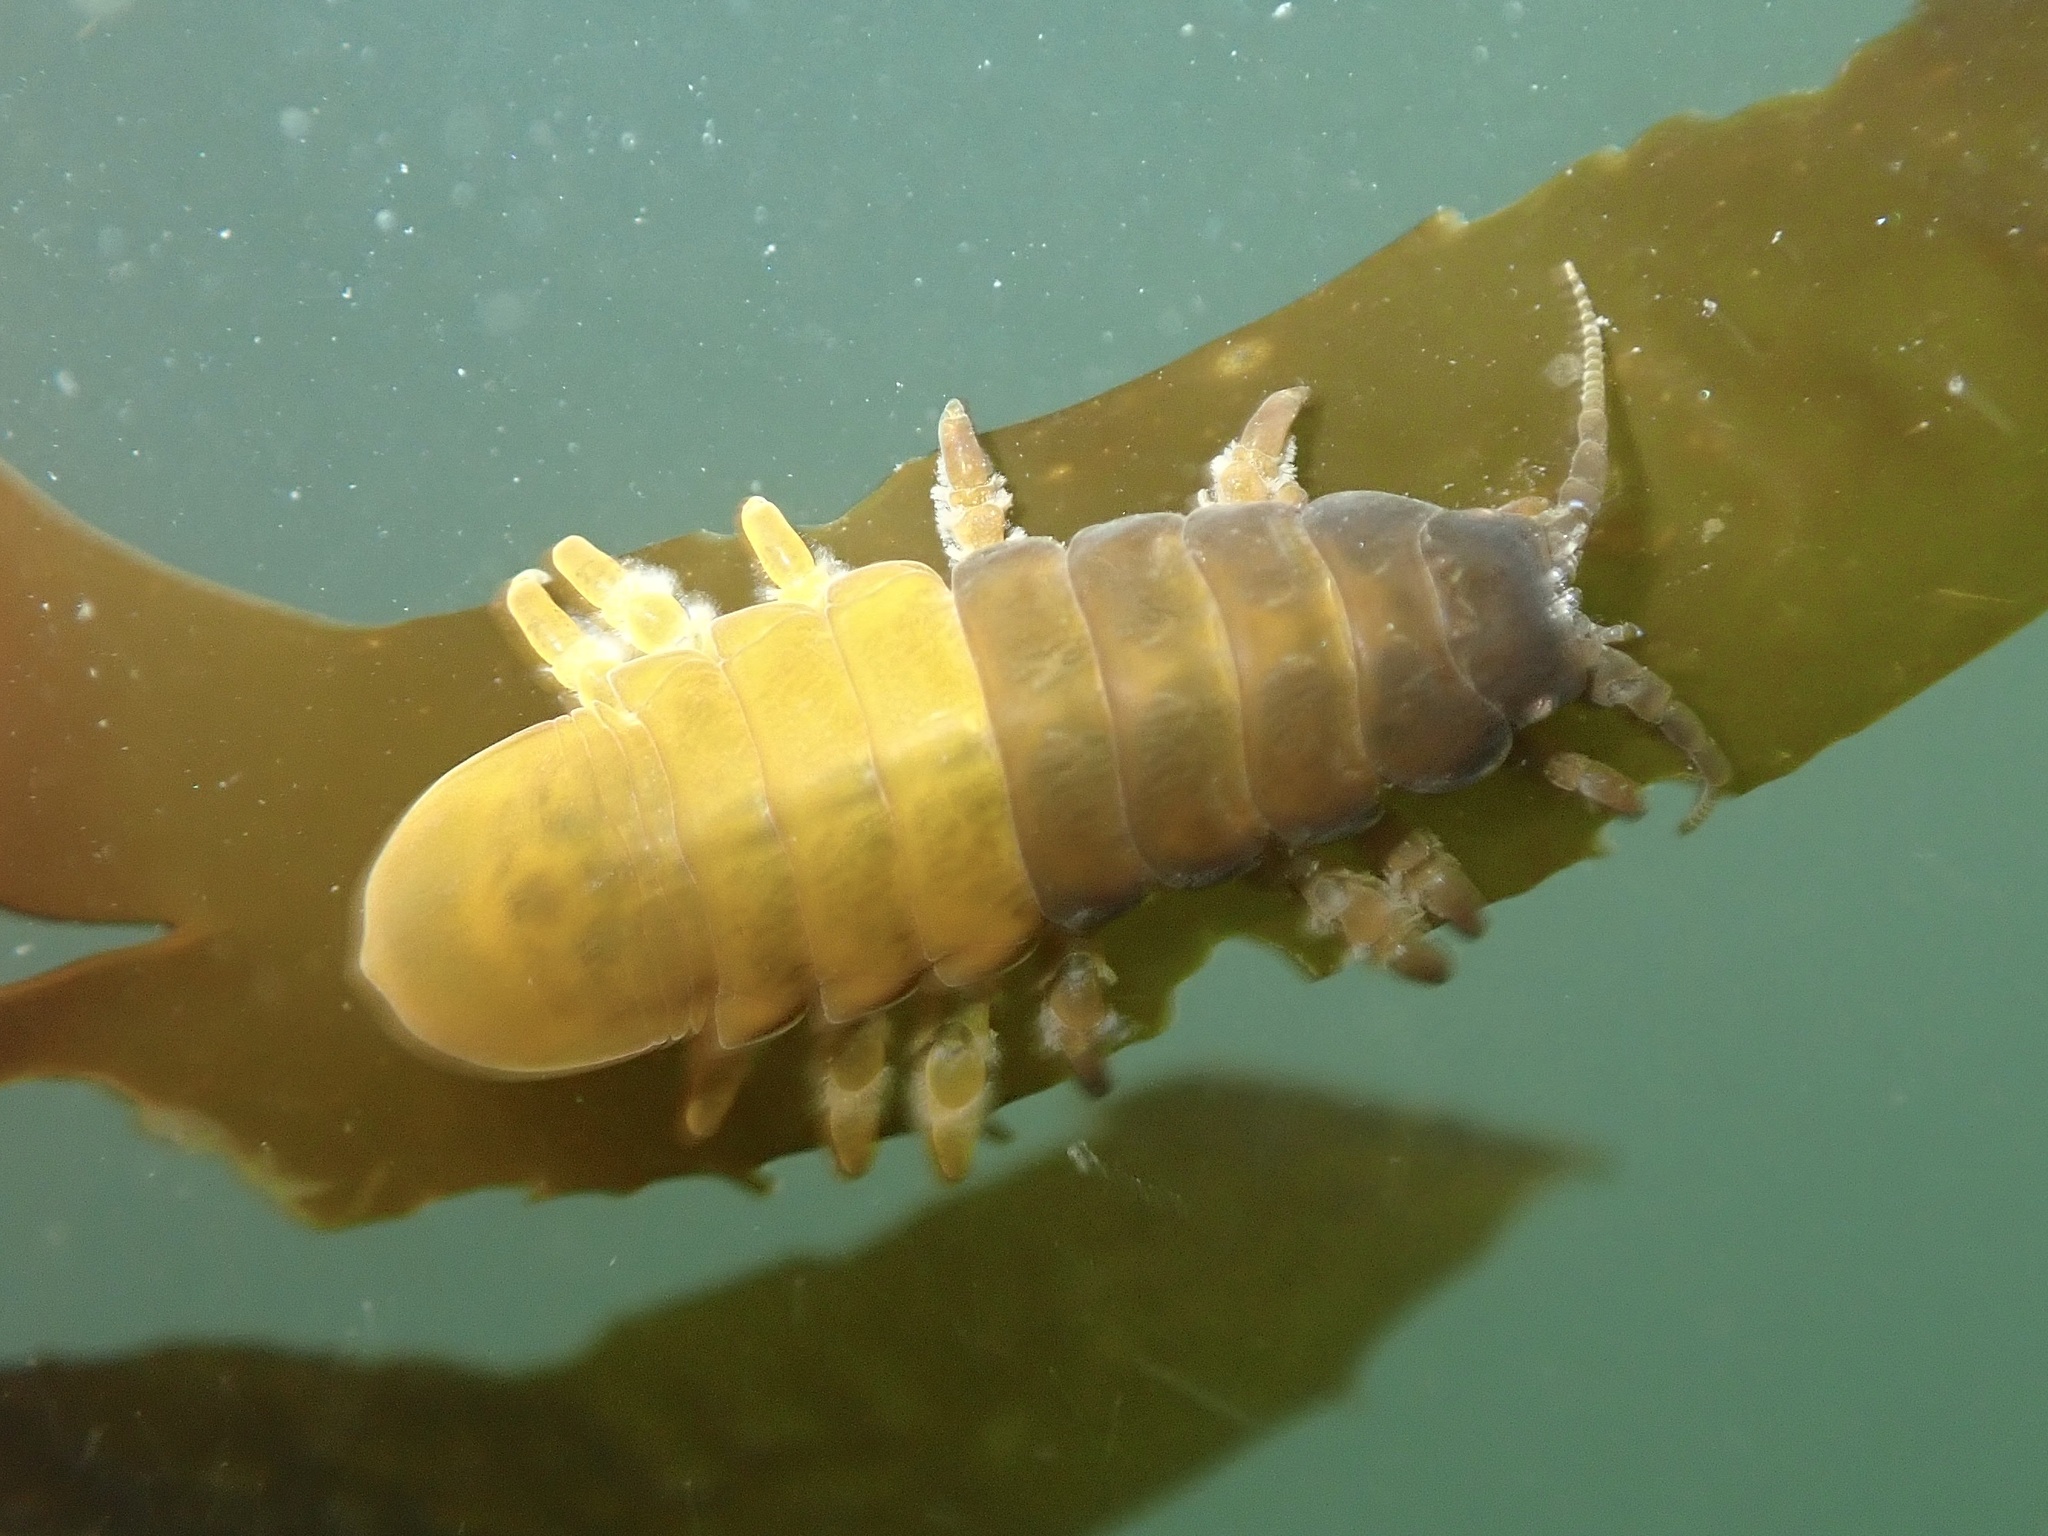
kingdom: Animalia
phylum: Arthropoda
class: Malacostraca
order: Isopoda
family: Idoteidae
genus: Pentidotea
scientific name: Pentidotea wosnesenskii
